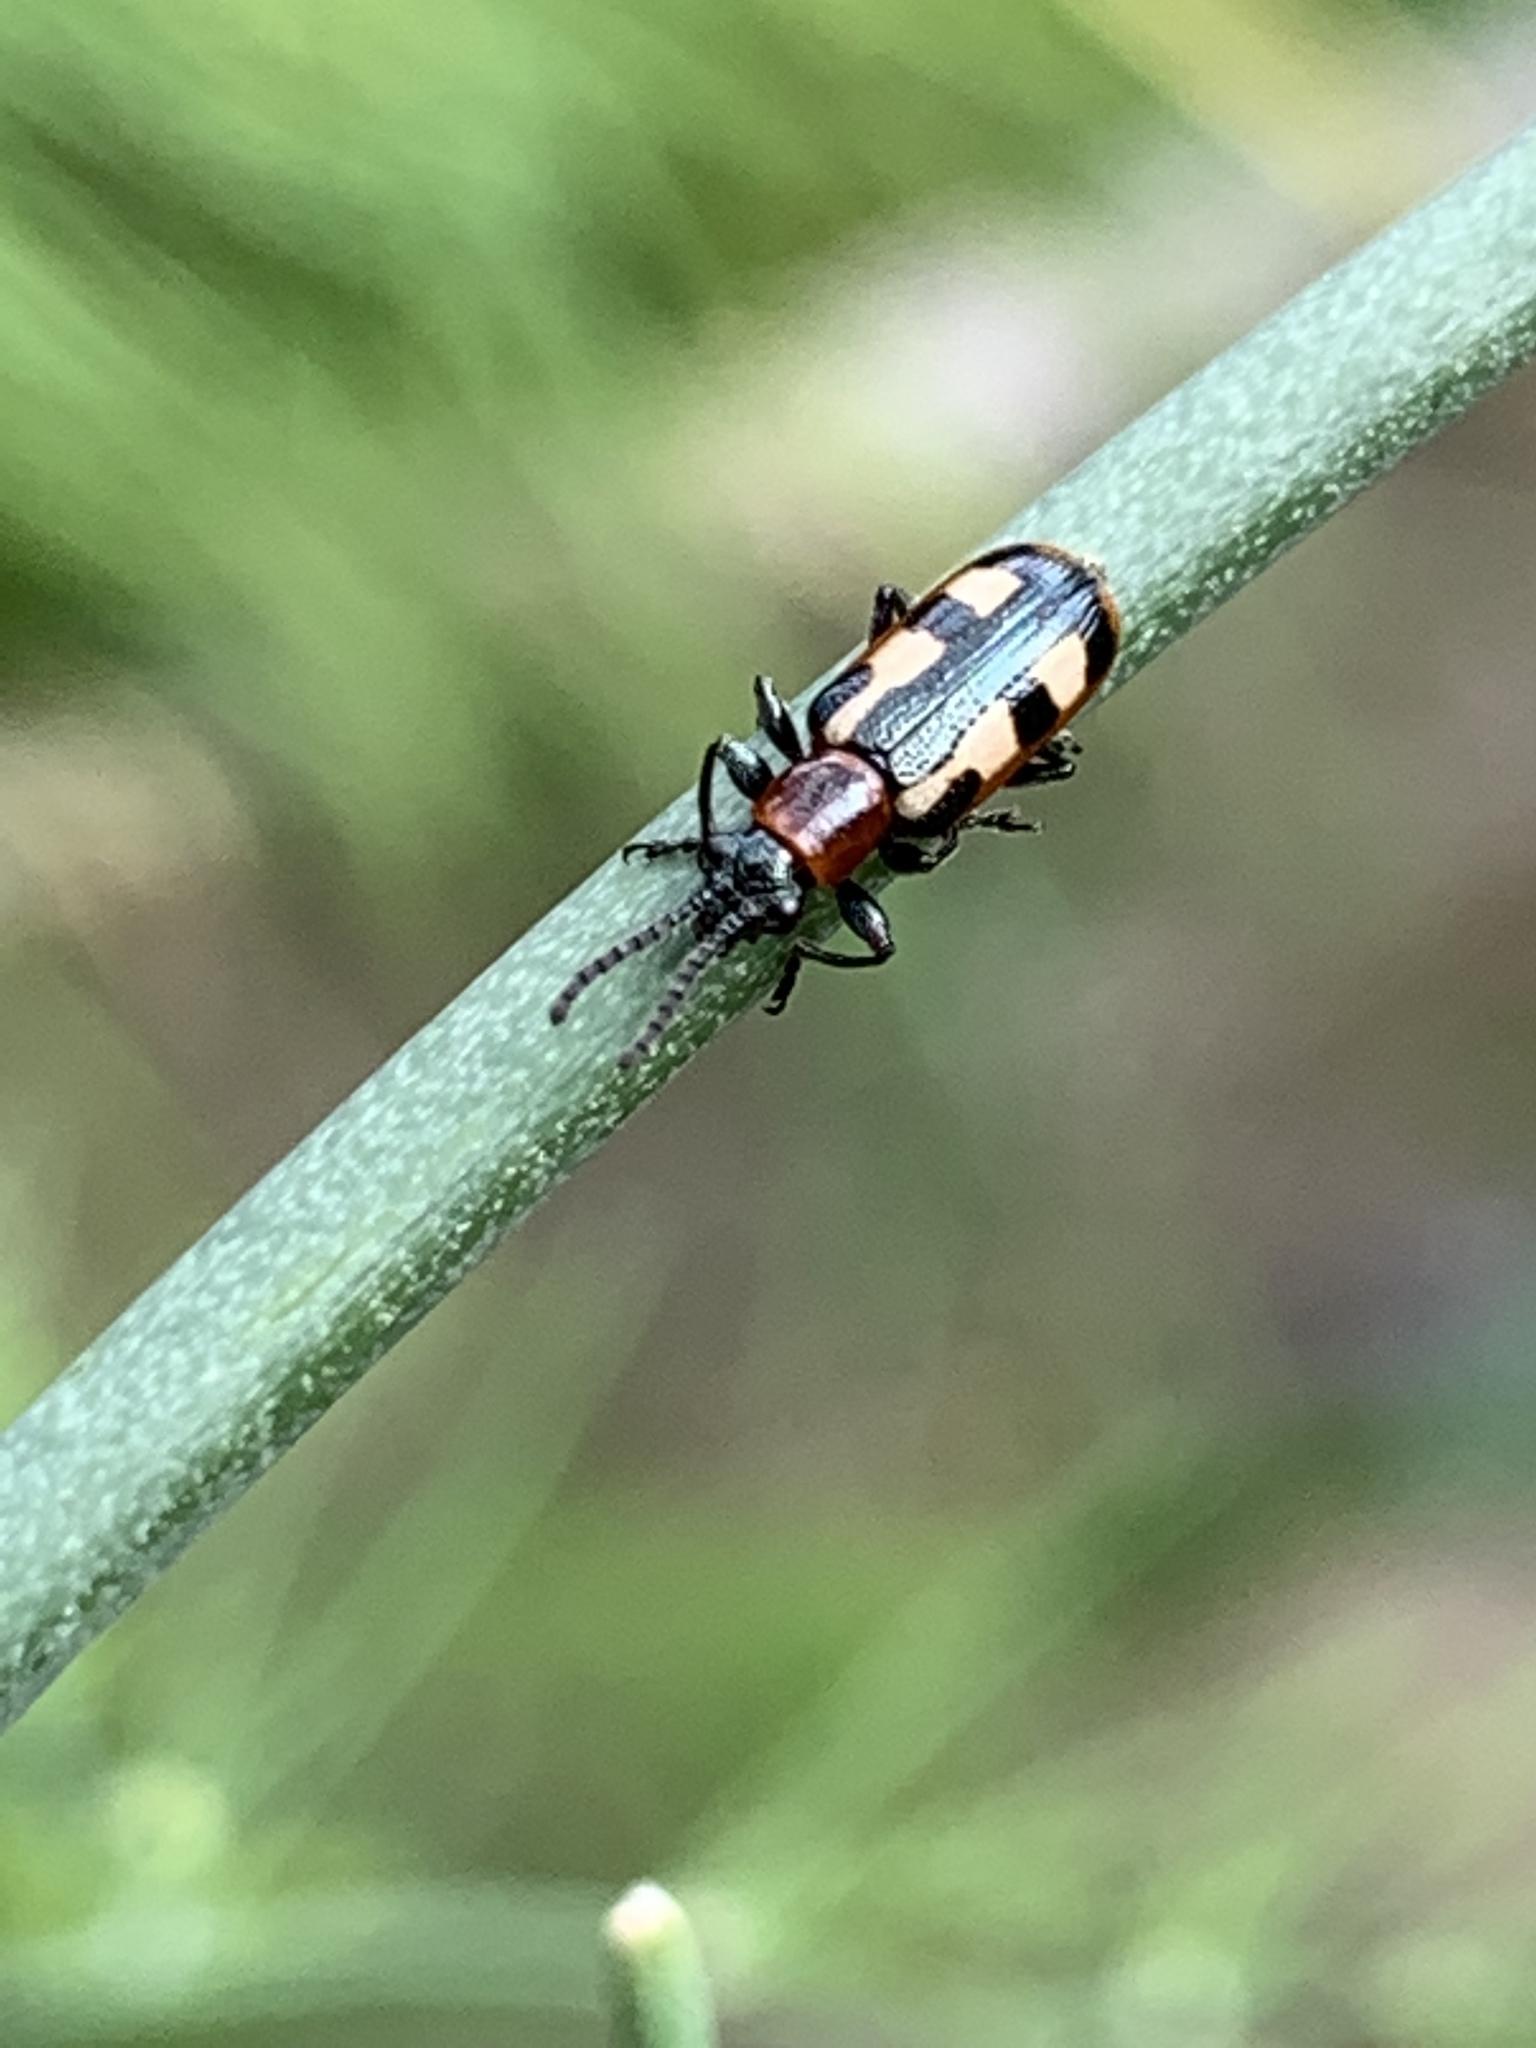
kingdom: Animalia
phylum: Arthropoda
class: Insecta
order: Coleoptera
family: Chrysomelidae
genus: Crioceris
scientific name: Crioceris asparagi
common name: Asparagus beetle
